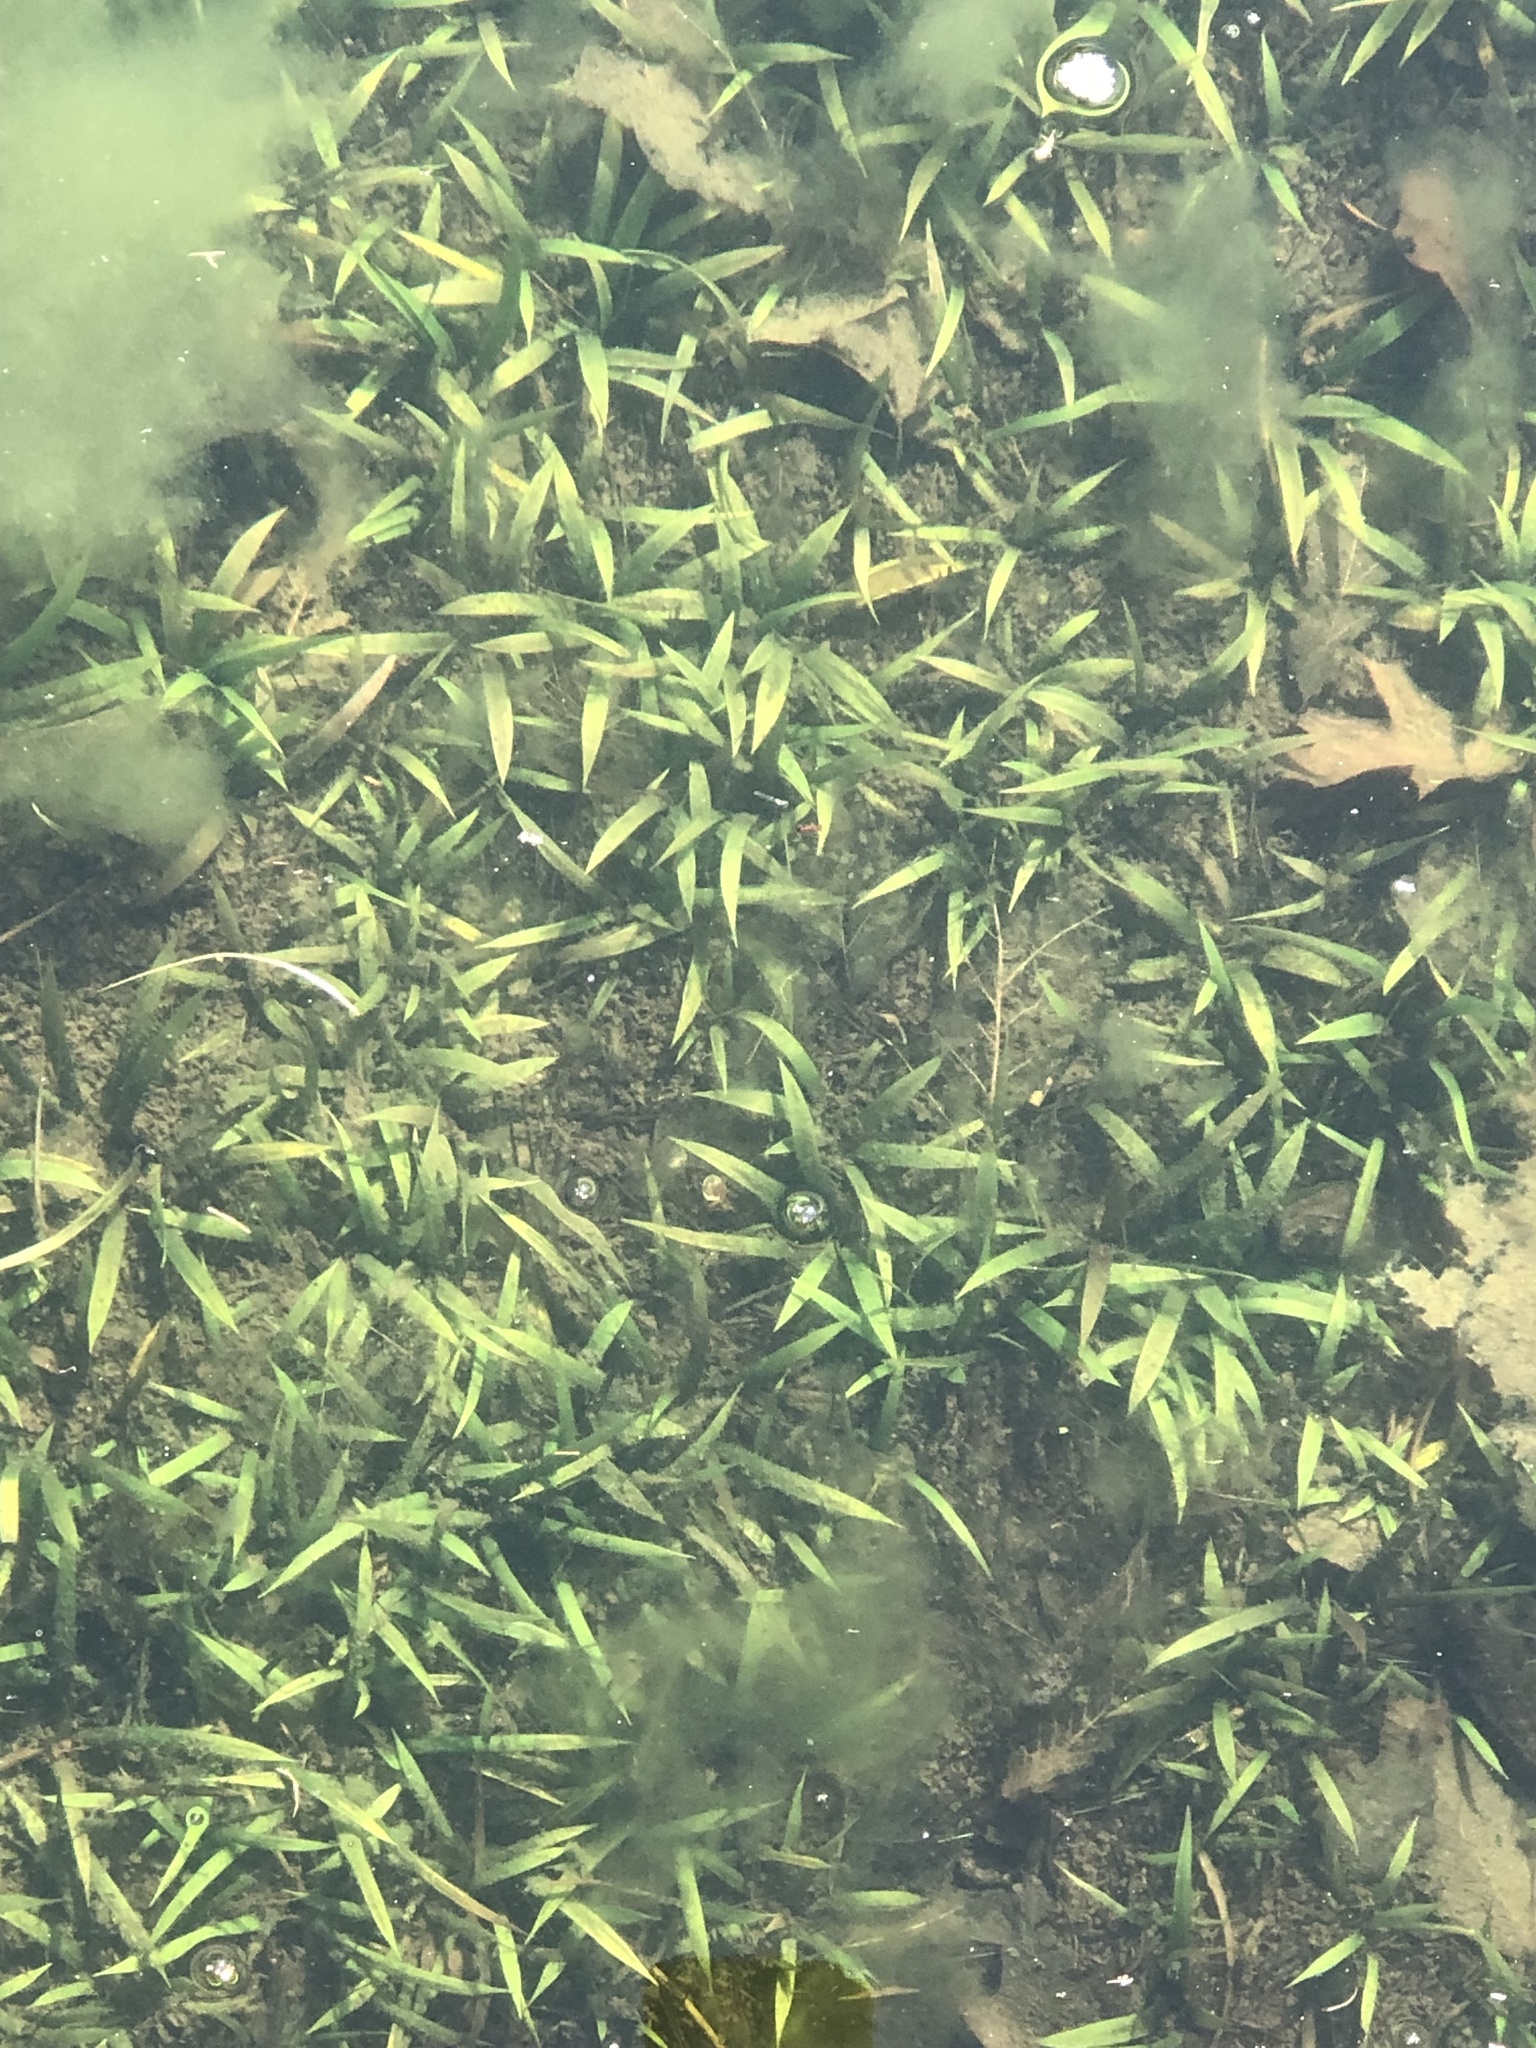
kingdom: Plantae
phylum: Tracheophyta
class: Liliopsida
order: Alismatales
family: Hydrocharitaceae
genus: Vallisneria
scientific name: Vallisneria americana
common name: American eelgrass
